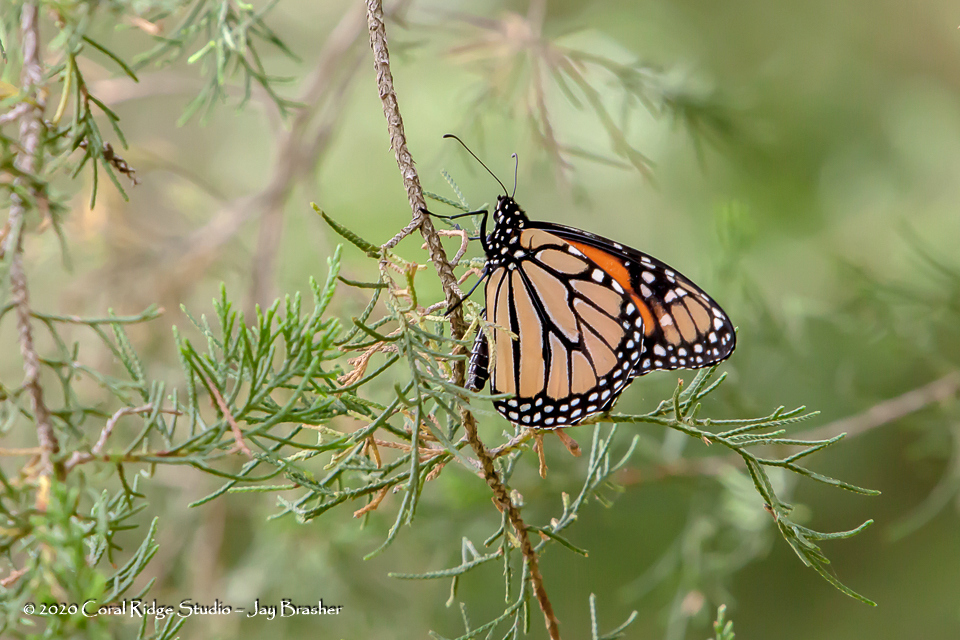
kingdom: Animalia
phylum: Arthropoda
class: Insecta
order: Lepidoptera
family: Nymphalidae
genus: Danaus
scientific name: Danaus plexippus
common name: Monarch
